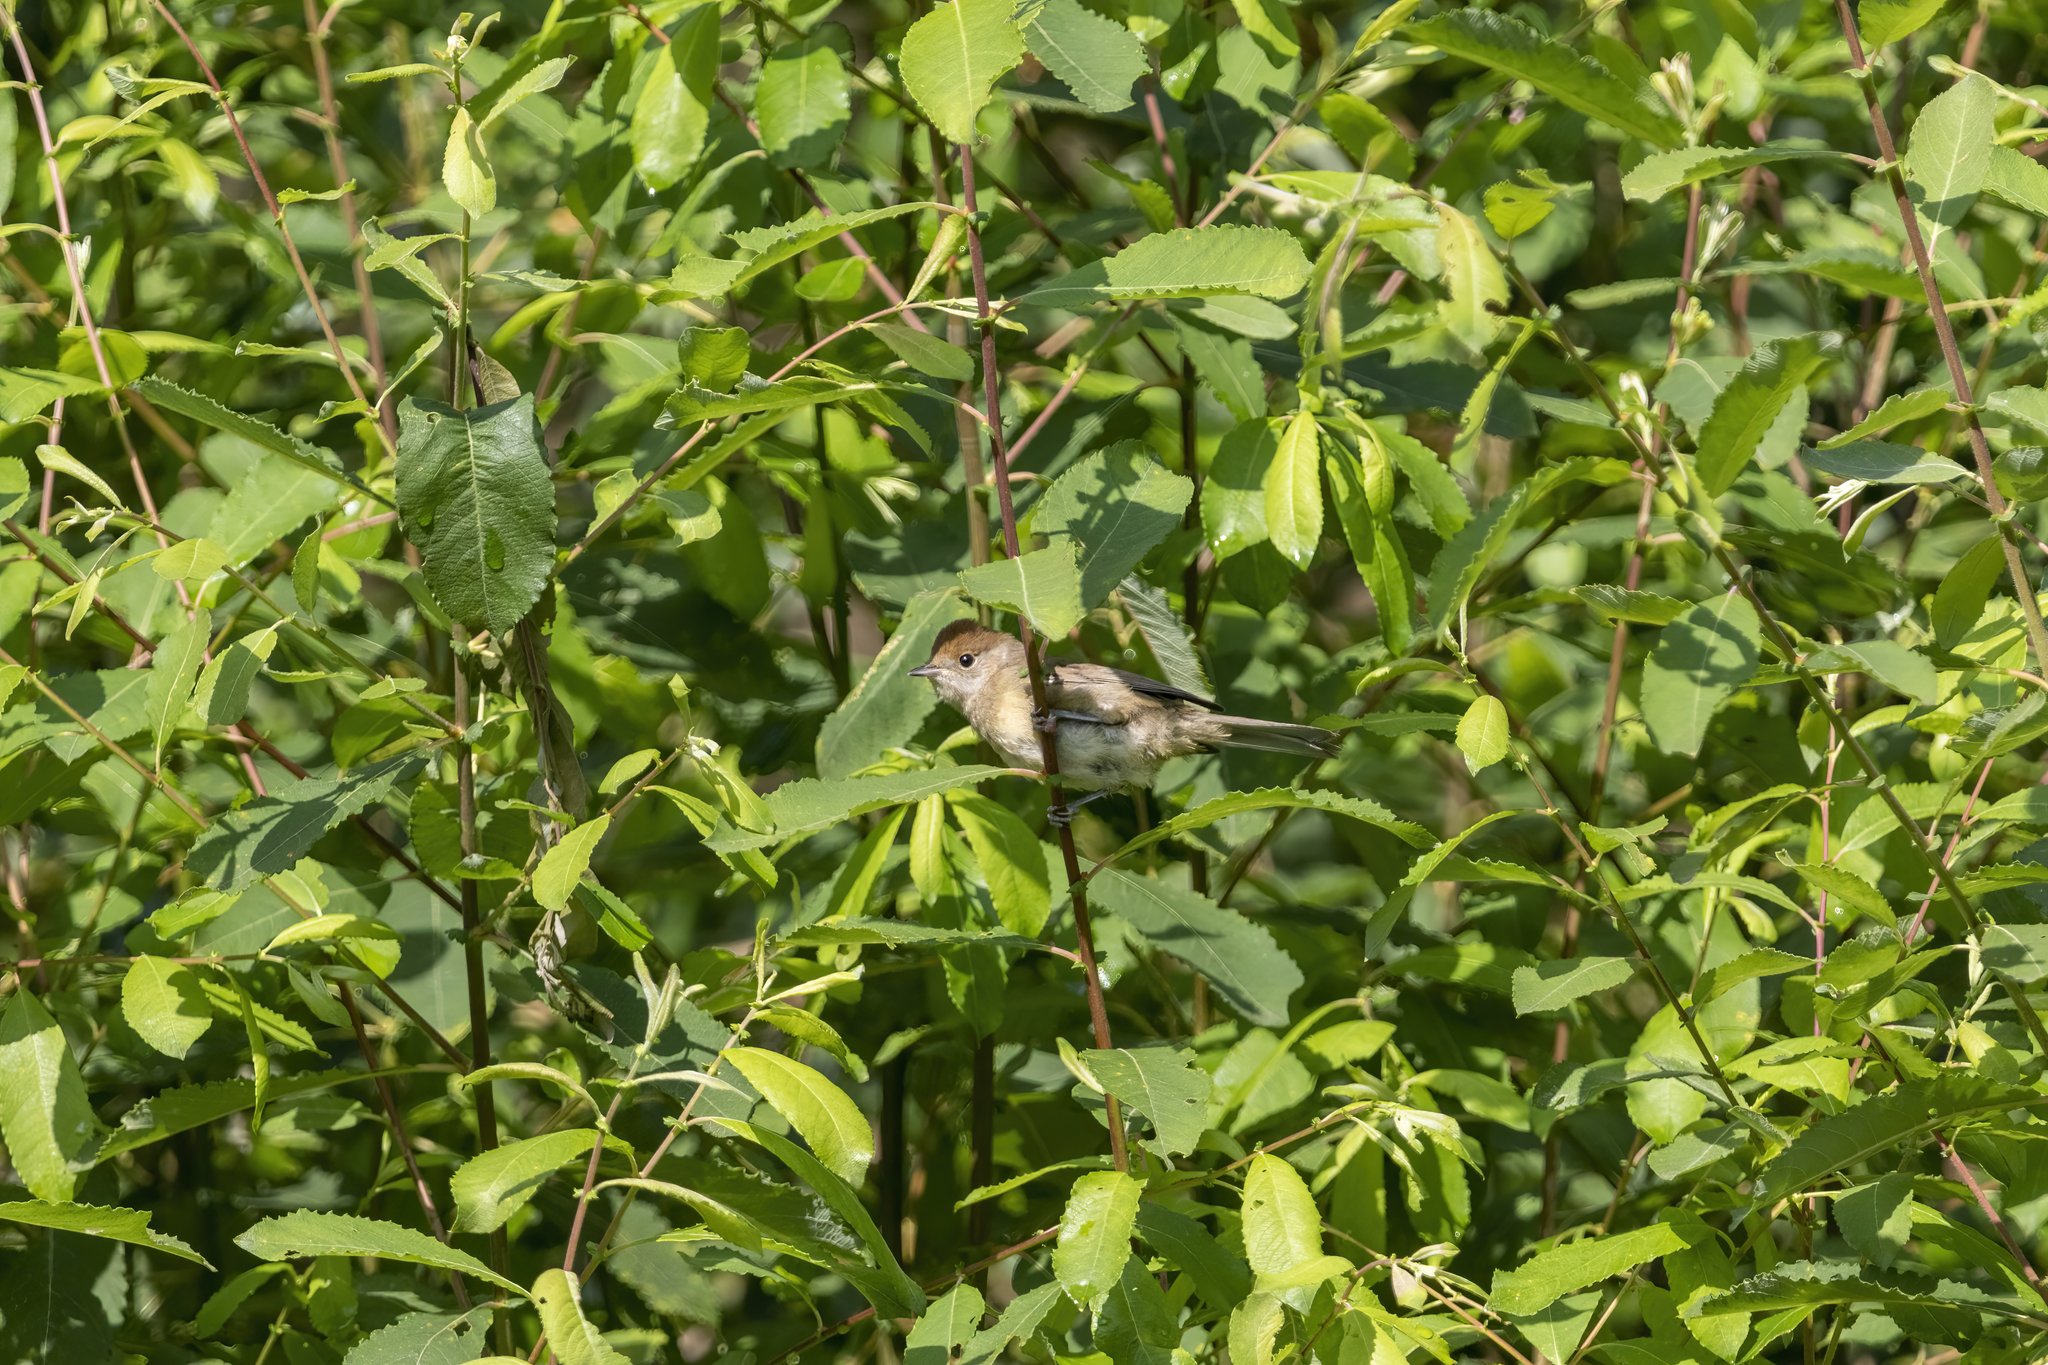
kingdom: Animalia
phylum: Chordata
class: Aves
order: Passeriformes
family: Sylviidae
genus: Sylvia
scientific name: Sylvia atricapilla
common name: Eurasian blackcap
